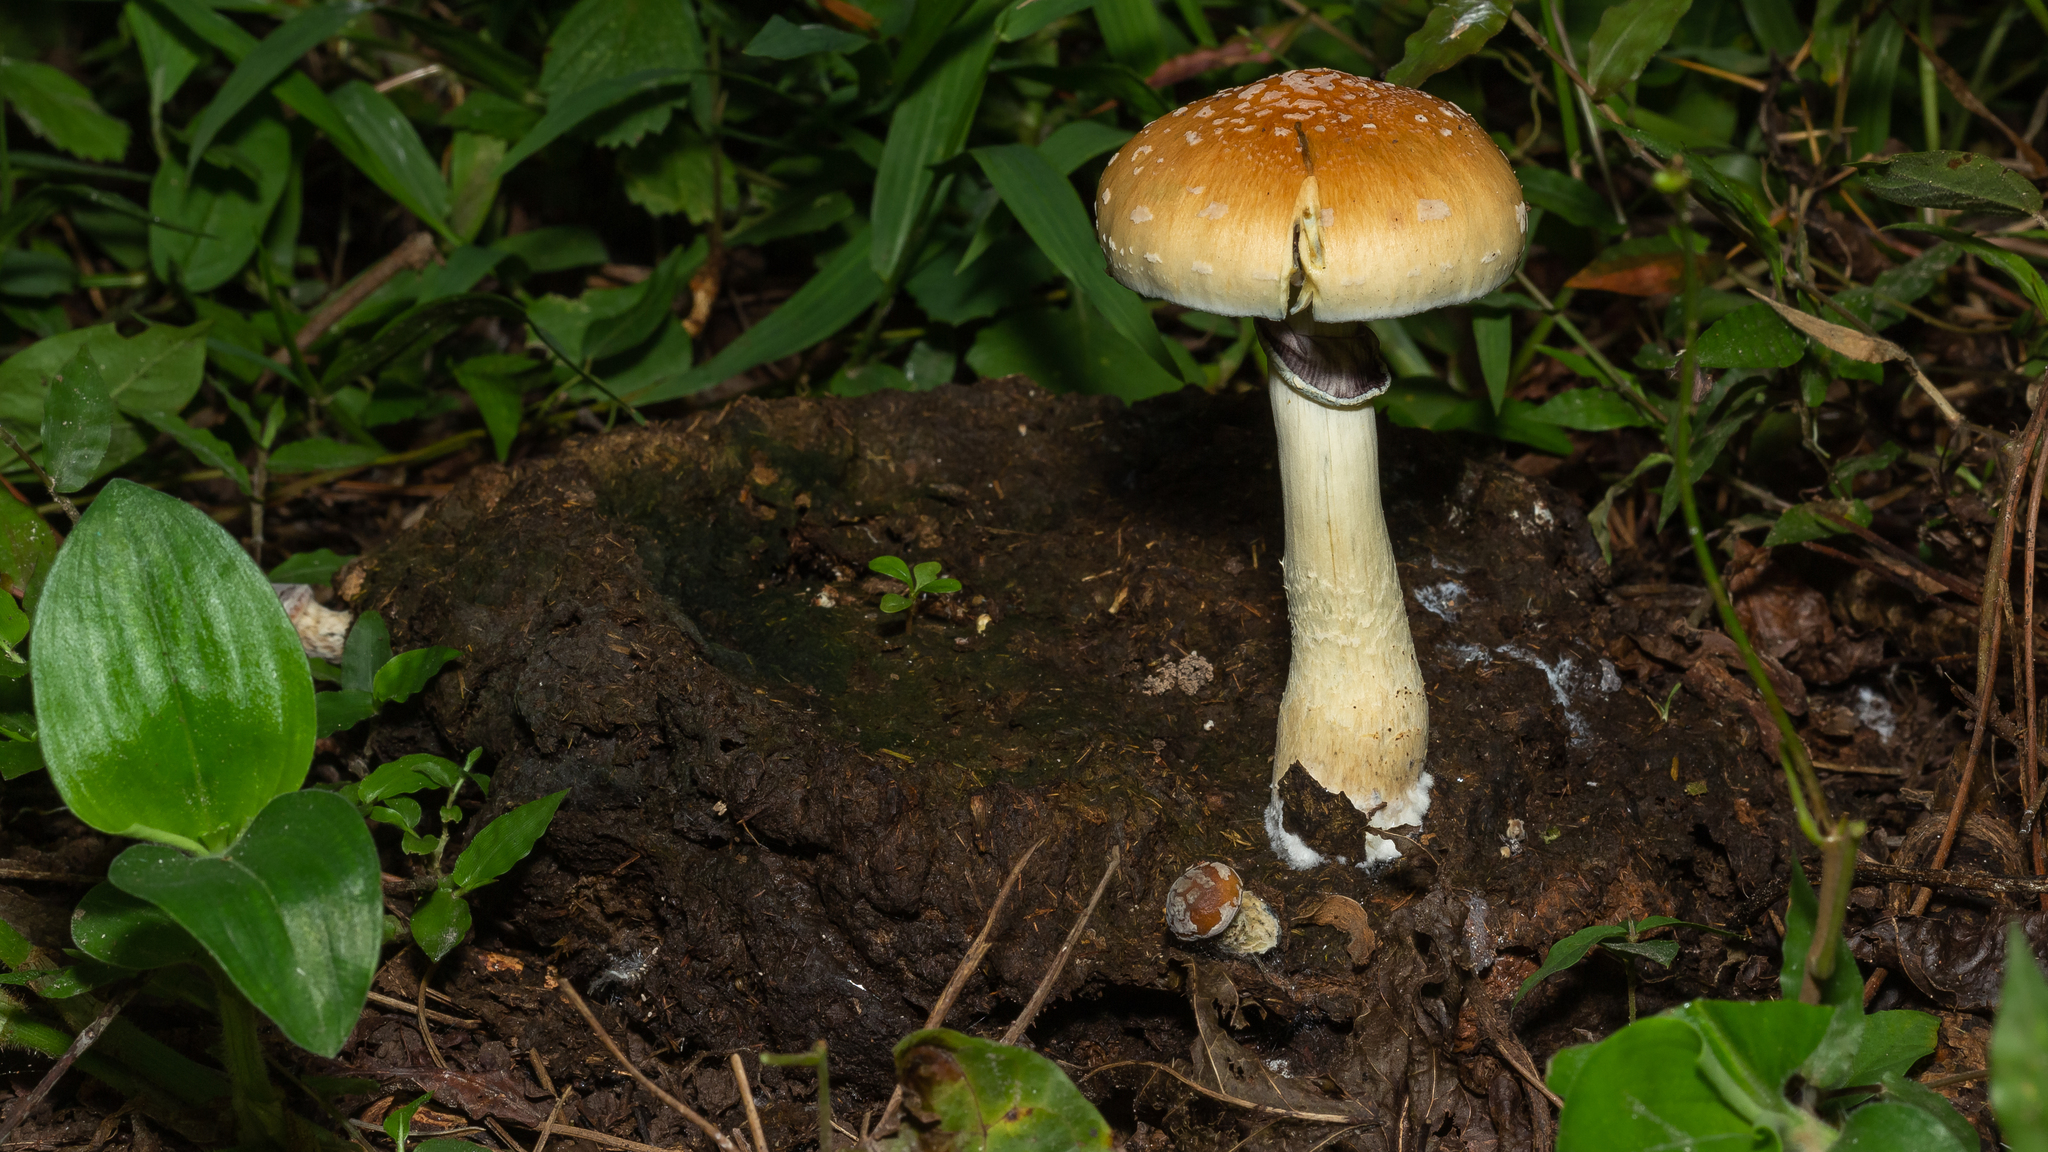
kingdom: Fungi
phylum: Basidiomycota
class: Agaricomycetes
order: Agaricales
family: Hymenogastraceae
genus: Psilocybe
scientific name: Psilocybe cubensis
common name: Golden brownie
